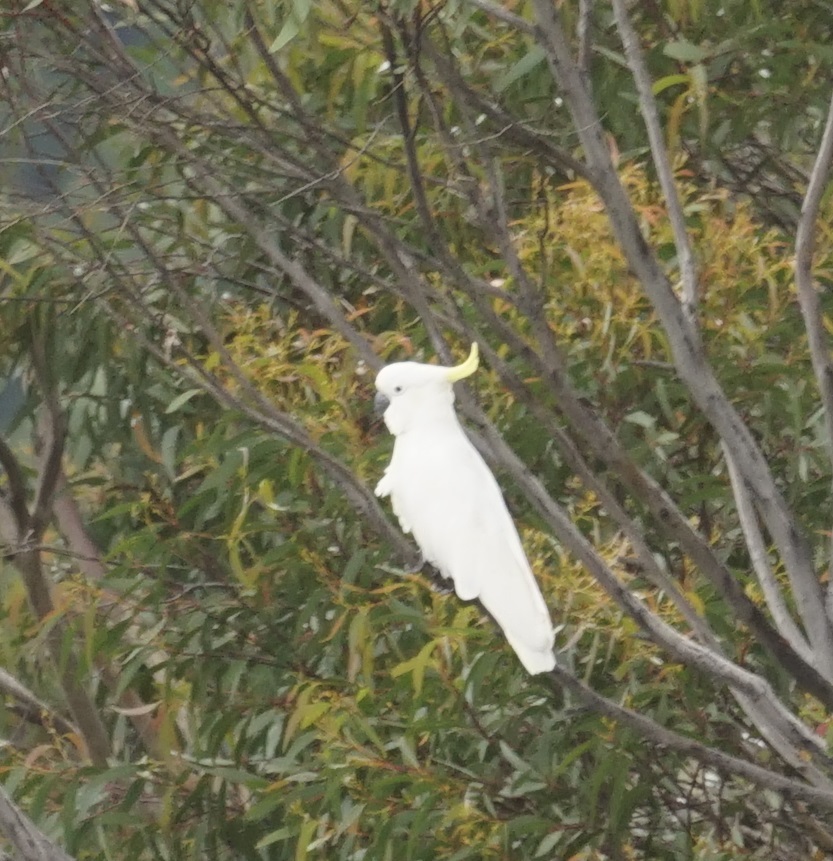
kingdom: Animalia
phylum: Chordata
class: Aves
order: Psittaciformes
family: Psittacidae
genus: Cacatua
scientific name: Cacatua galerita
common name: Sulphur-crested cockatoo
